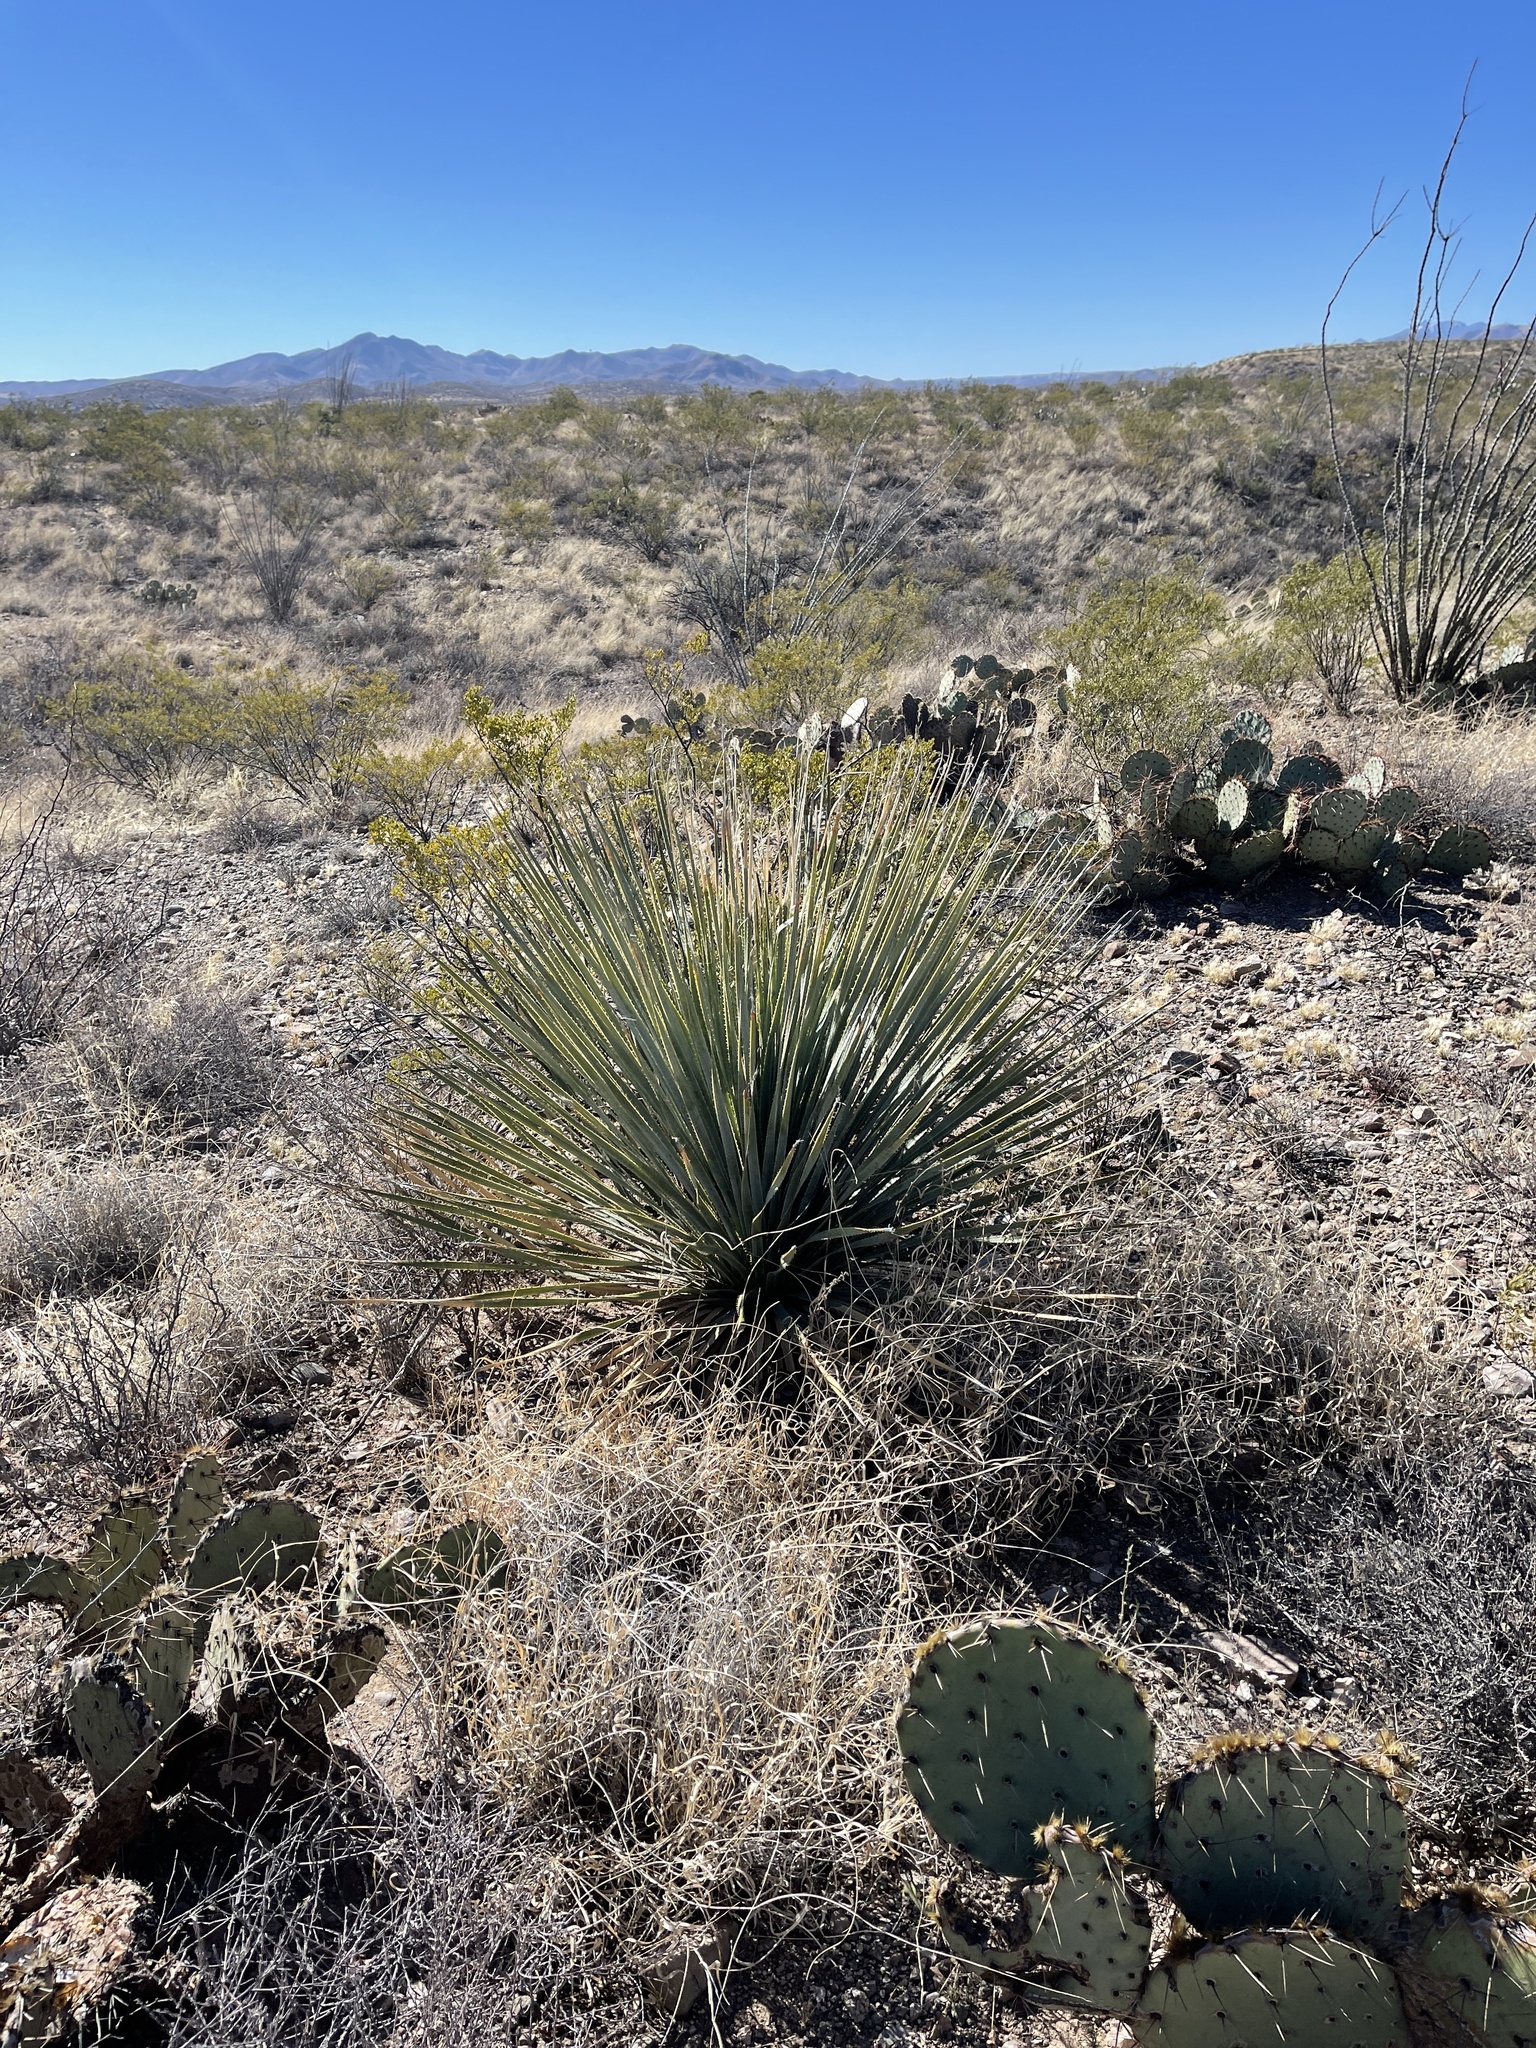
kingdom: Plantae
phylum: Tracheophyta
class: Liliopsida
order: Asparagales
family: Asparagaceae
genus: Dasylirion
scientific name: Dasylirion wheeleri
